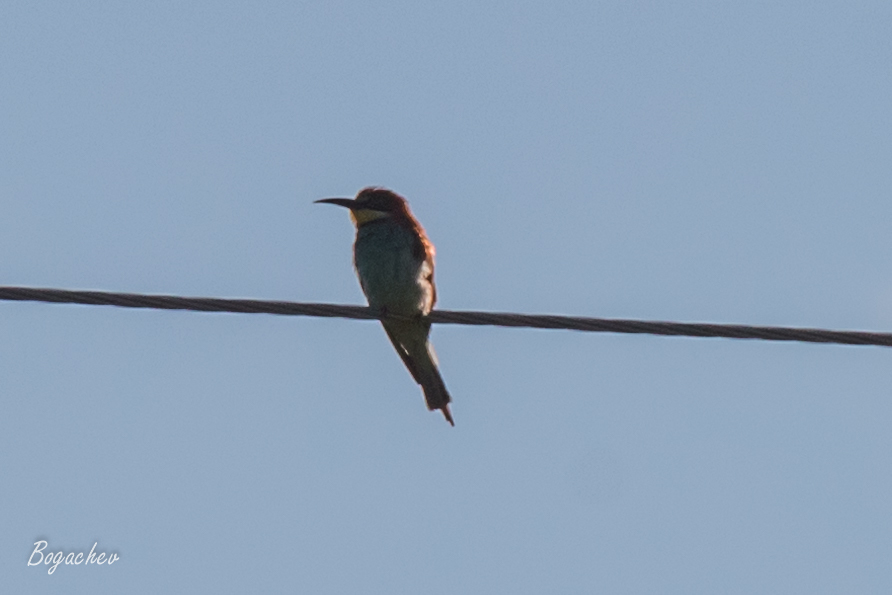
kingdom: Animalia
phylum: Chordata
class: Aves
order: Coraciiformes
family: Meropidae
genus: Merops
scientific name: Merops apiaster
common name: European bee-eater
